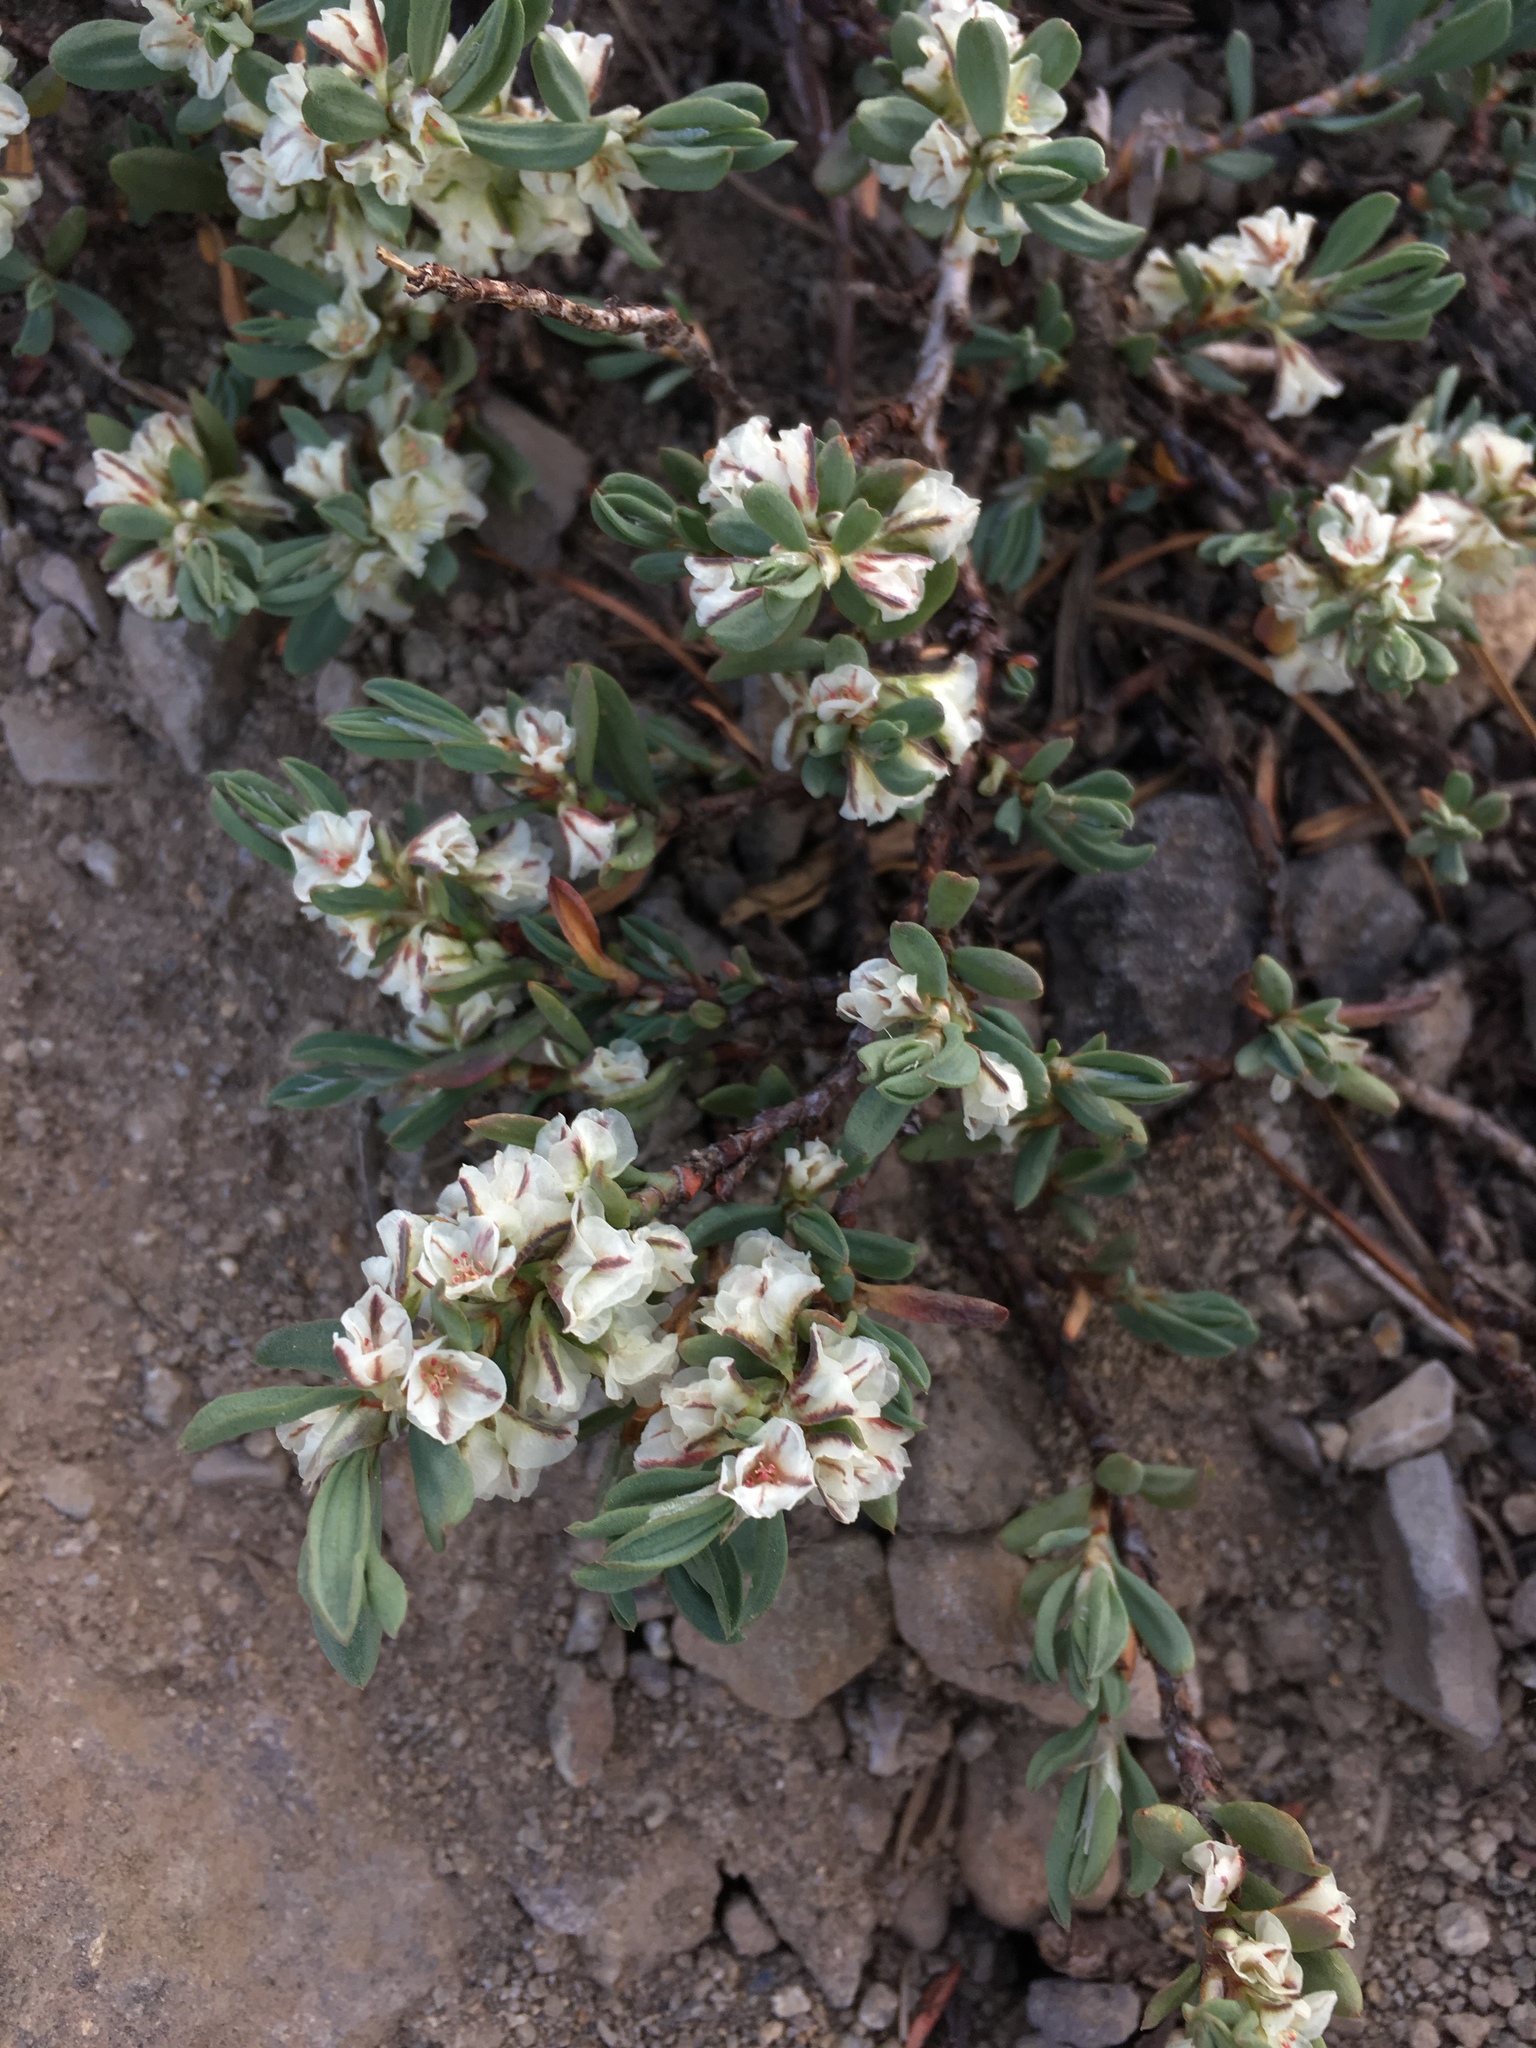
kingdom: Plantae
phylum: Tracheophyta
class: Magnoliopsida
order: Caryophyllales
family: Polygonaceae
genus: Polygonum
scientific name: Polygonum shastense
